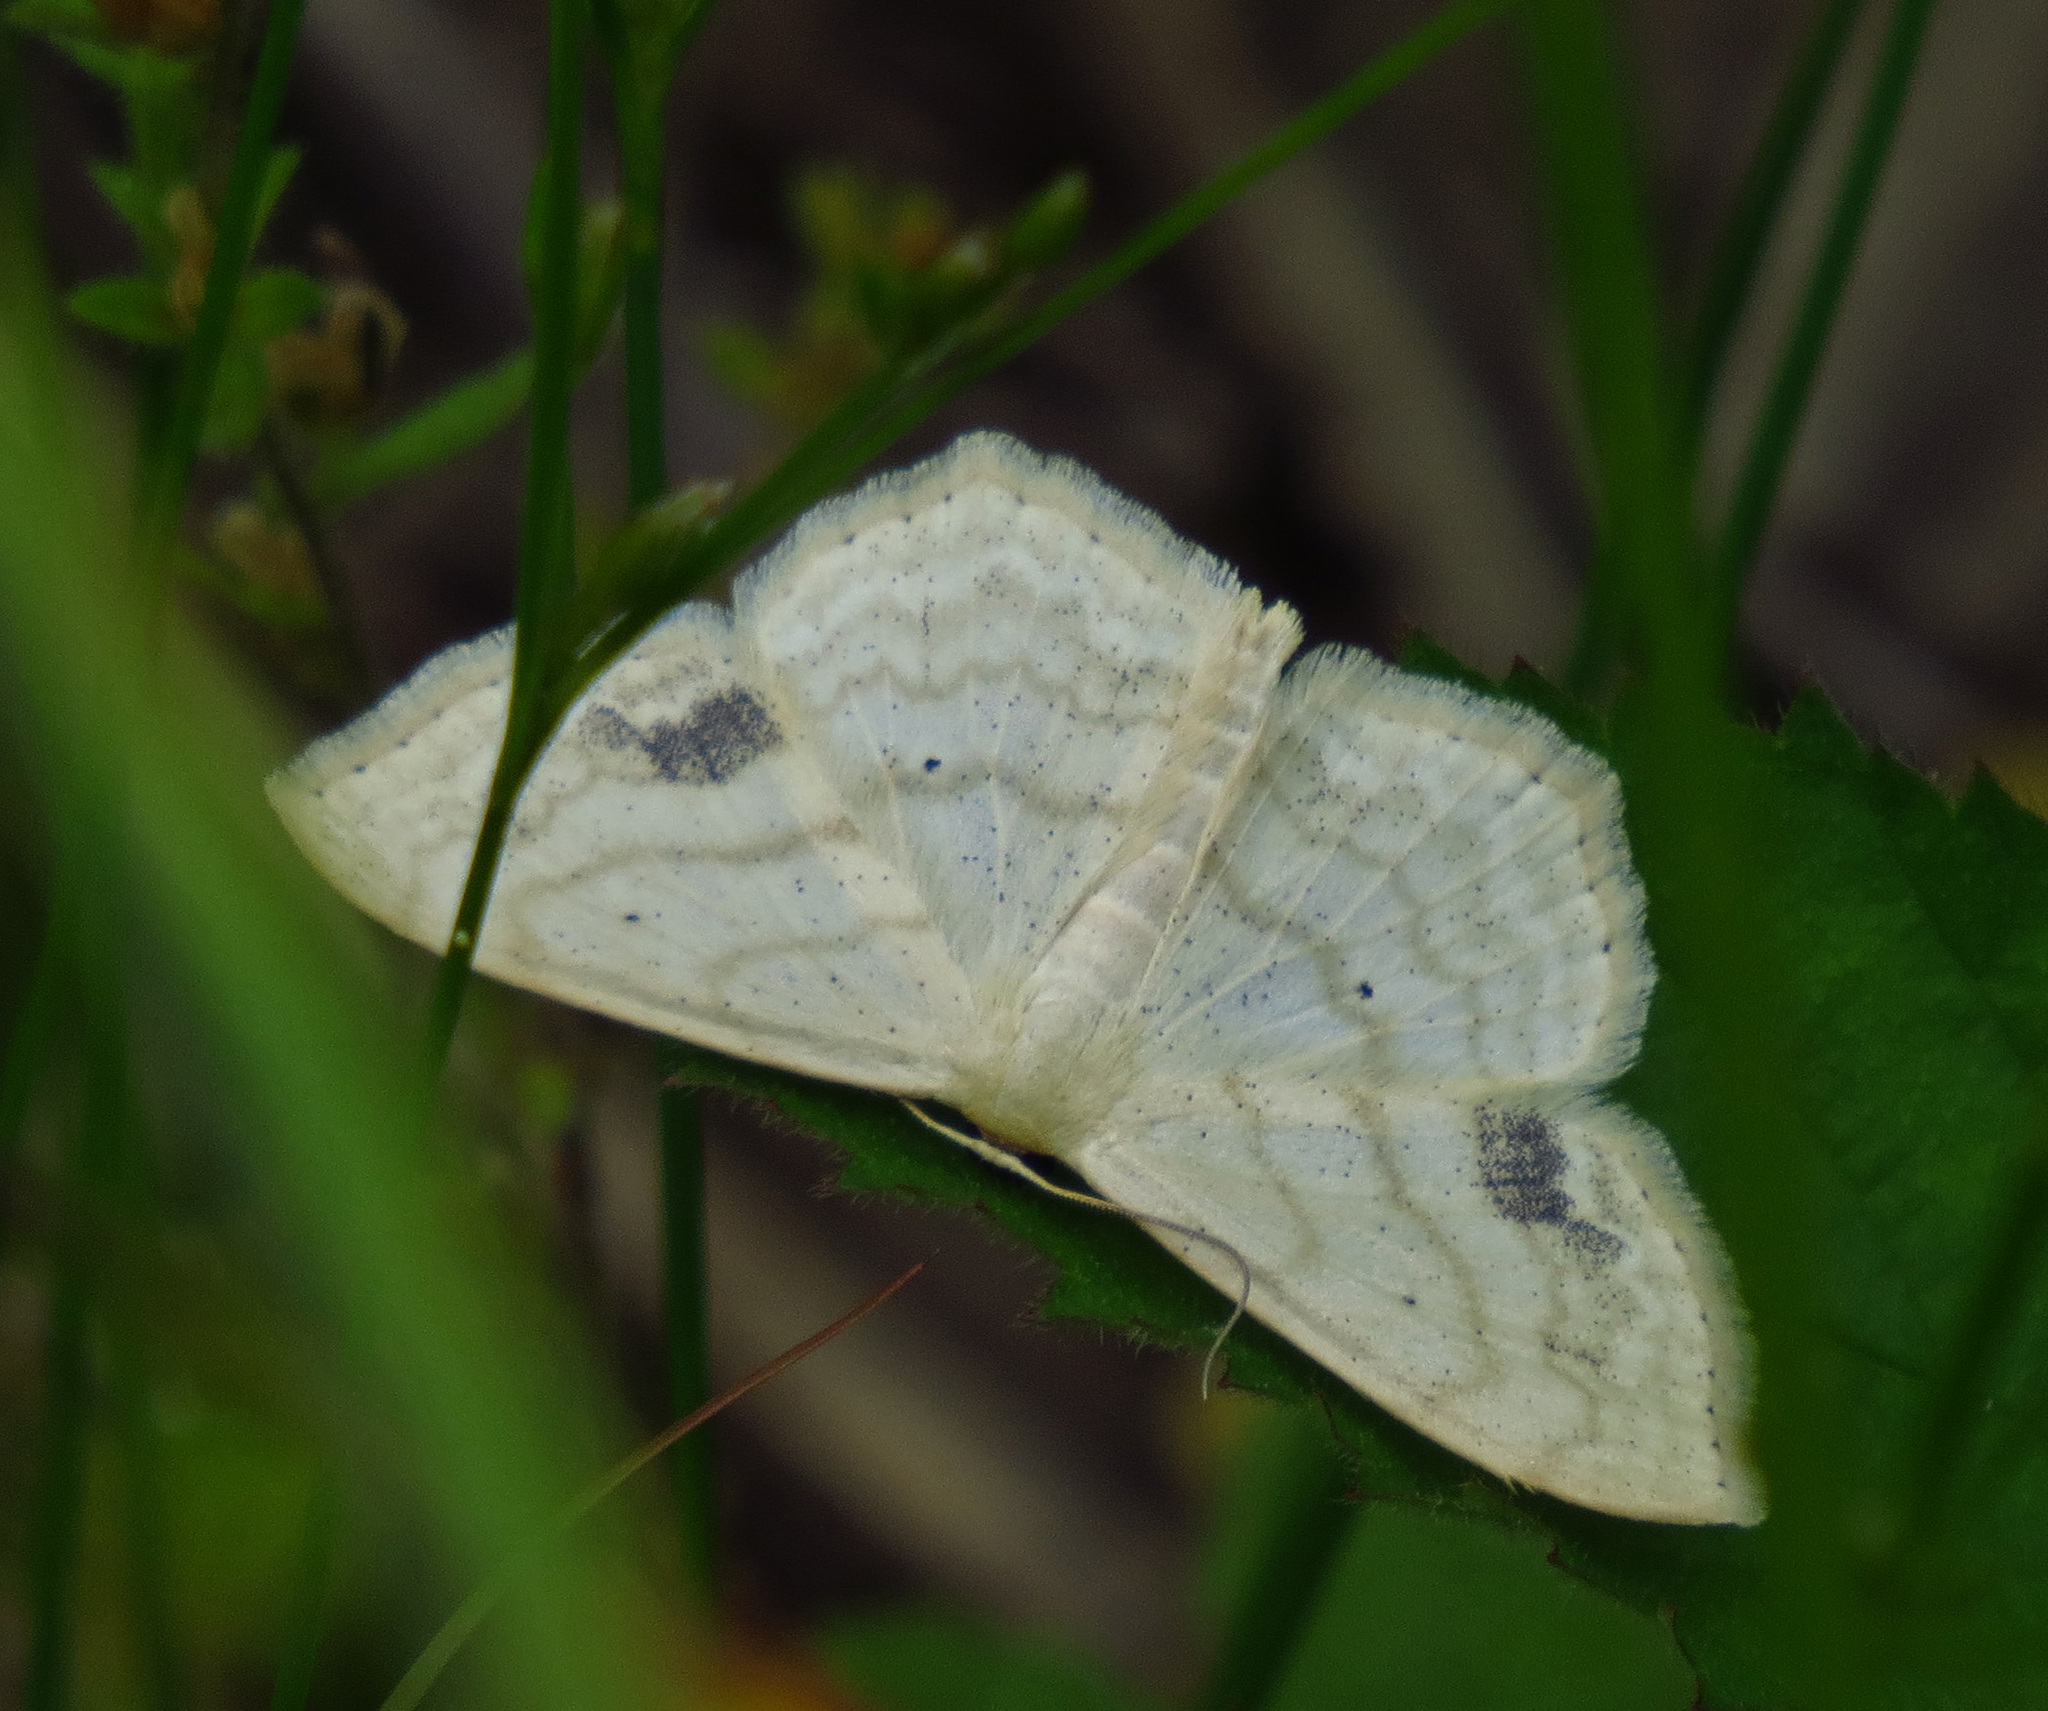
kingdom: Animalia
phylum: Arthropoda
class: Insecta
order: Lepidoptera
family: Geometridae
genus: Scopula
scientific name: Scopula limboundata
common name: Large lace border
